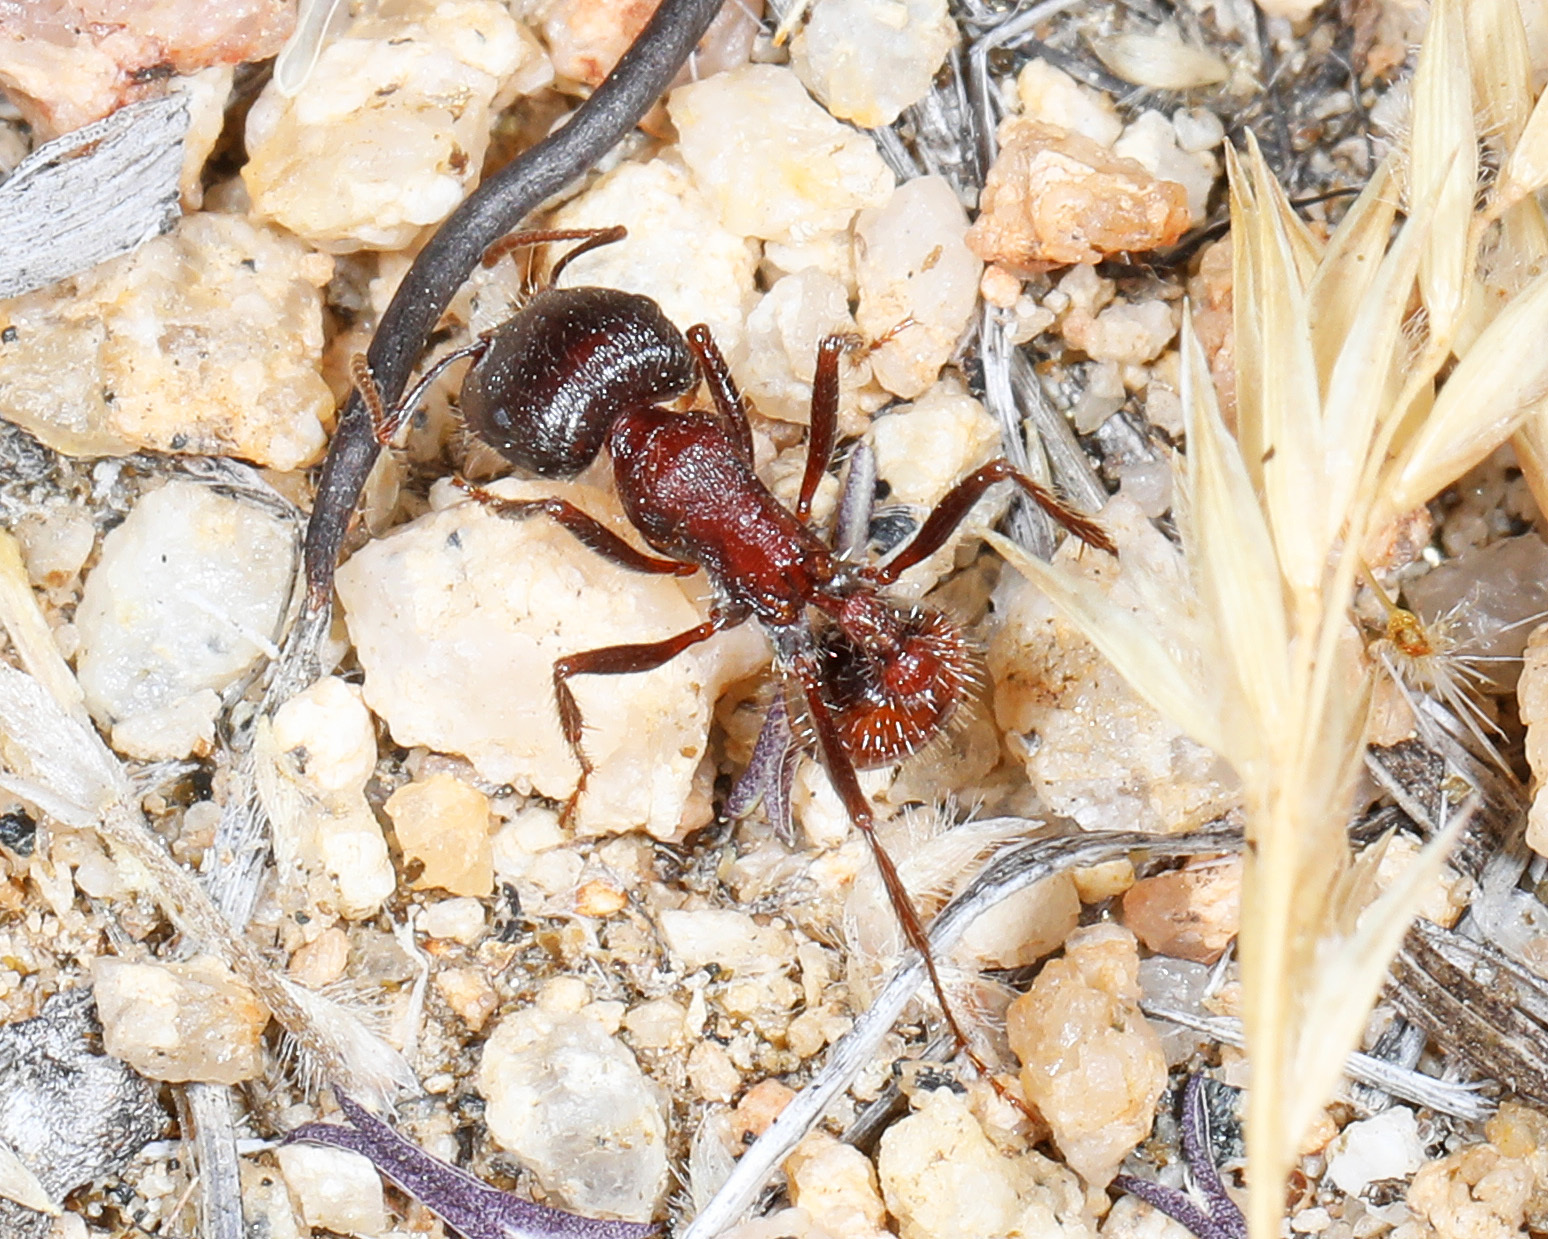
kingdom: Animalia
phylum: Arthropoda
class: Insecta
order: Hymenoptera
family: Formicidae
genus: Pogonomyrmex
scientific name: Pogonomyrmex rugosus
